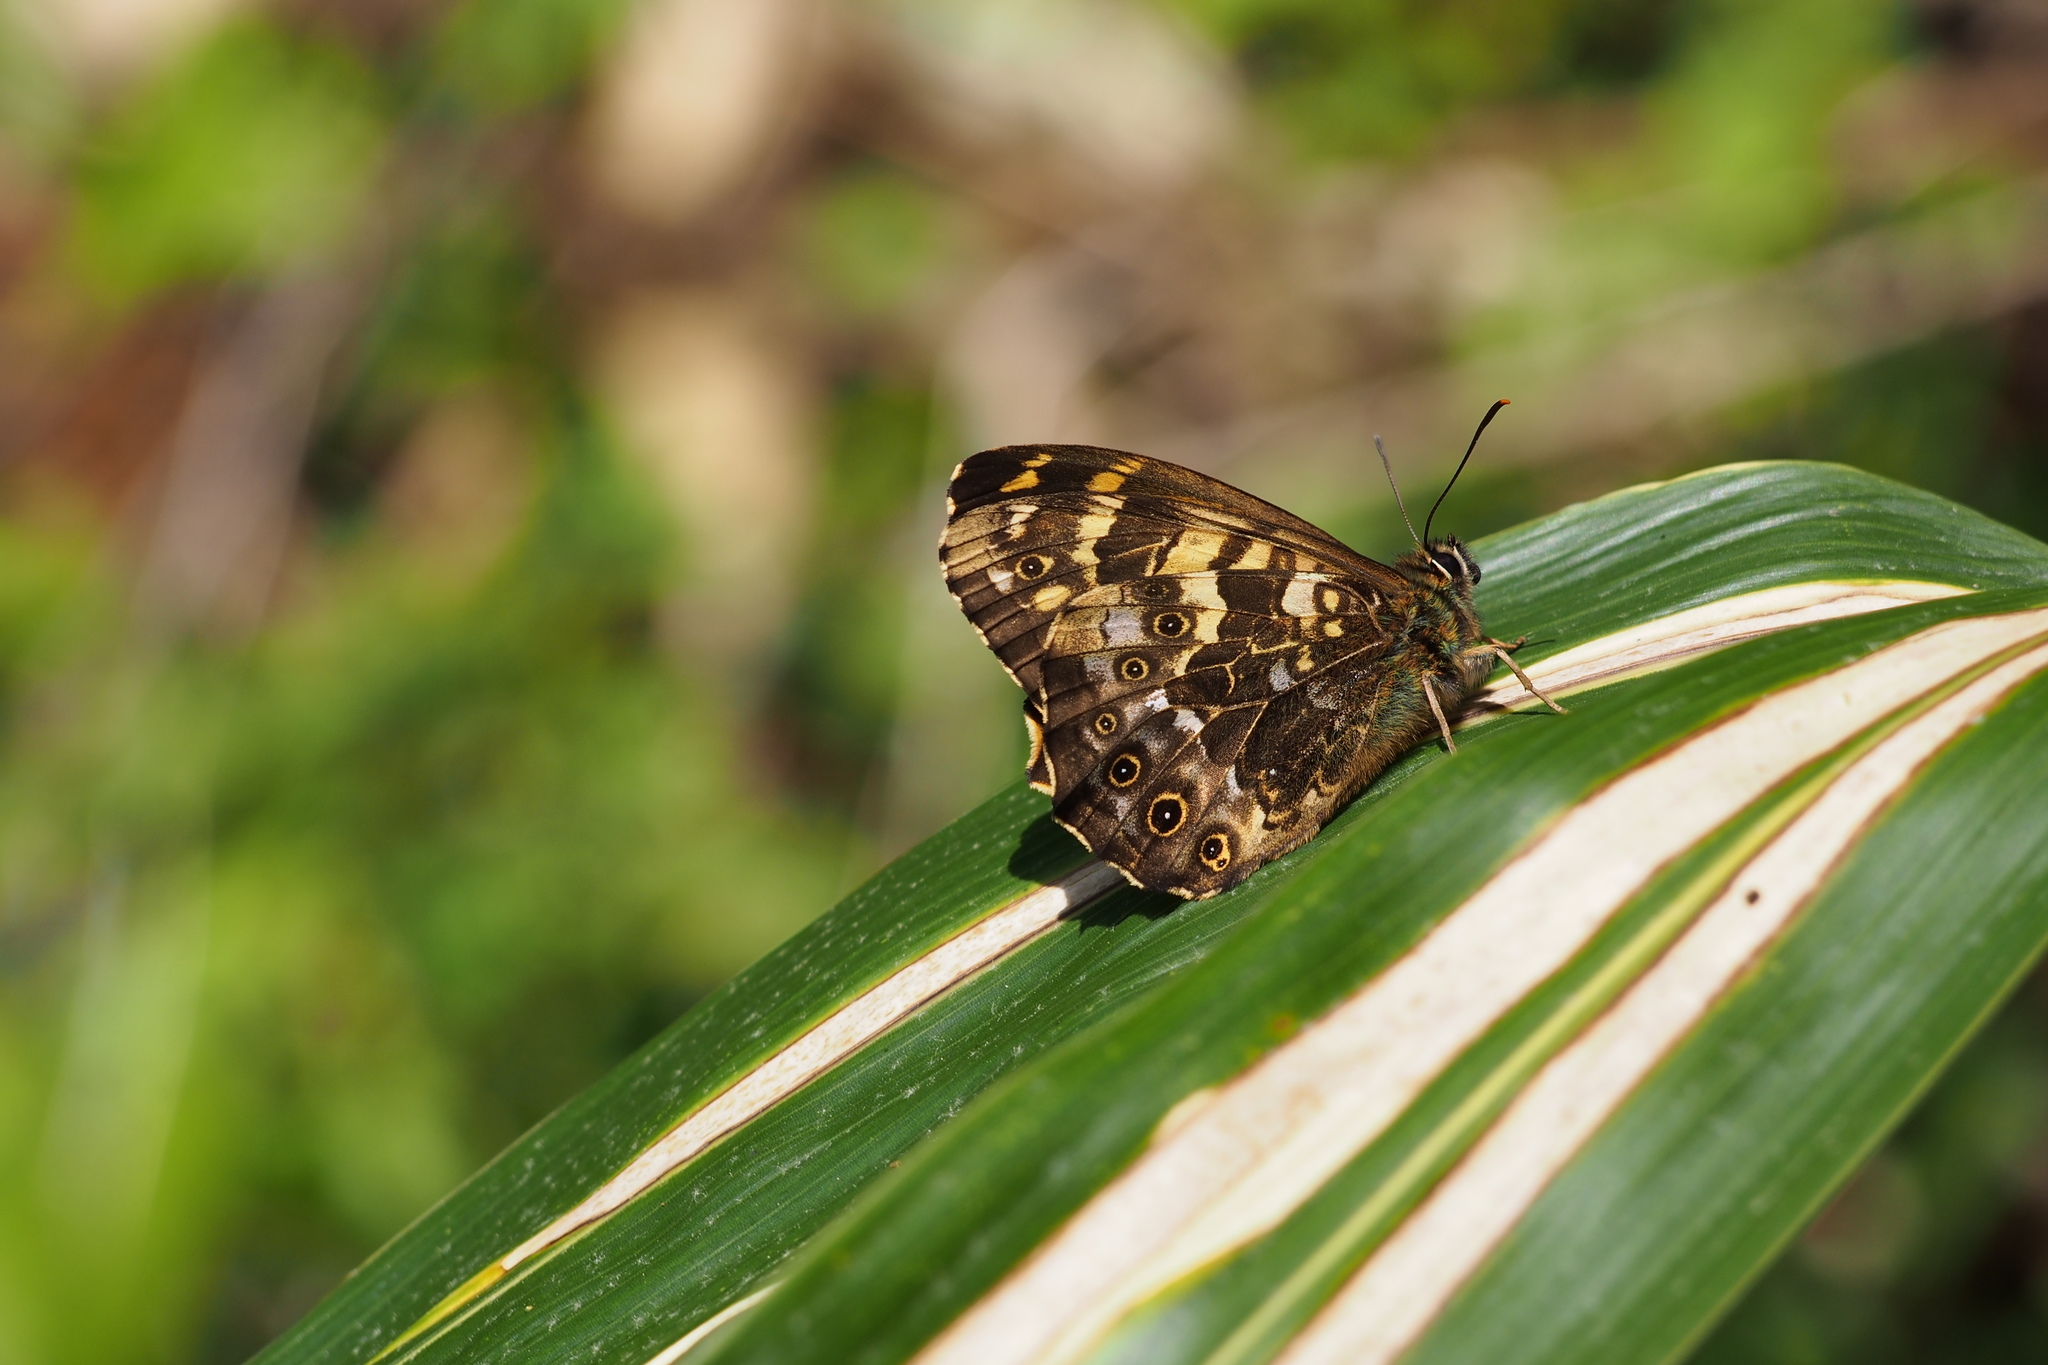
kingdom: Animalia
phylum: Arthropoda
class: Insecta
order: Lepidoptera
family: Nymphalidae
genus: Neope
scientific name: Neope goschkevitschii
